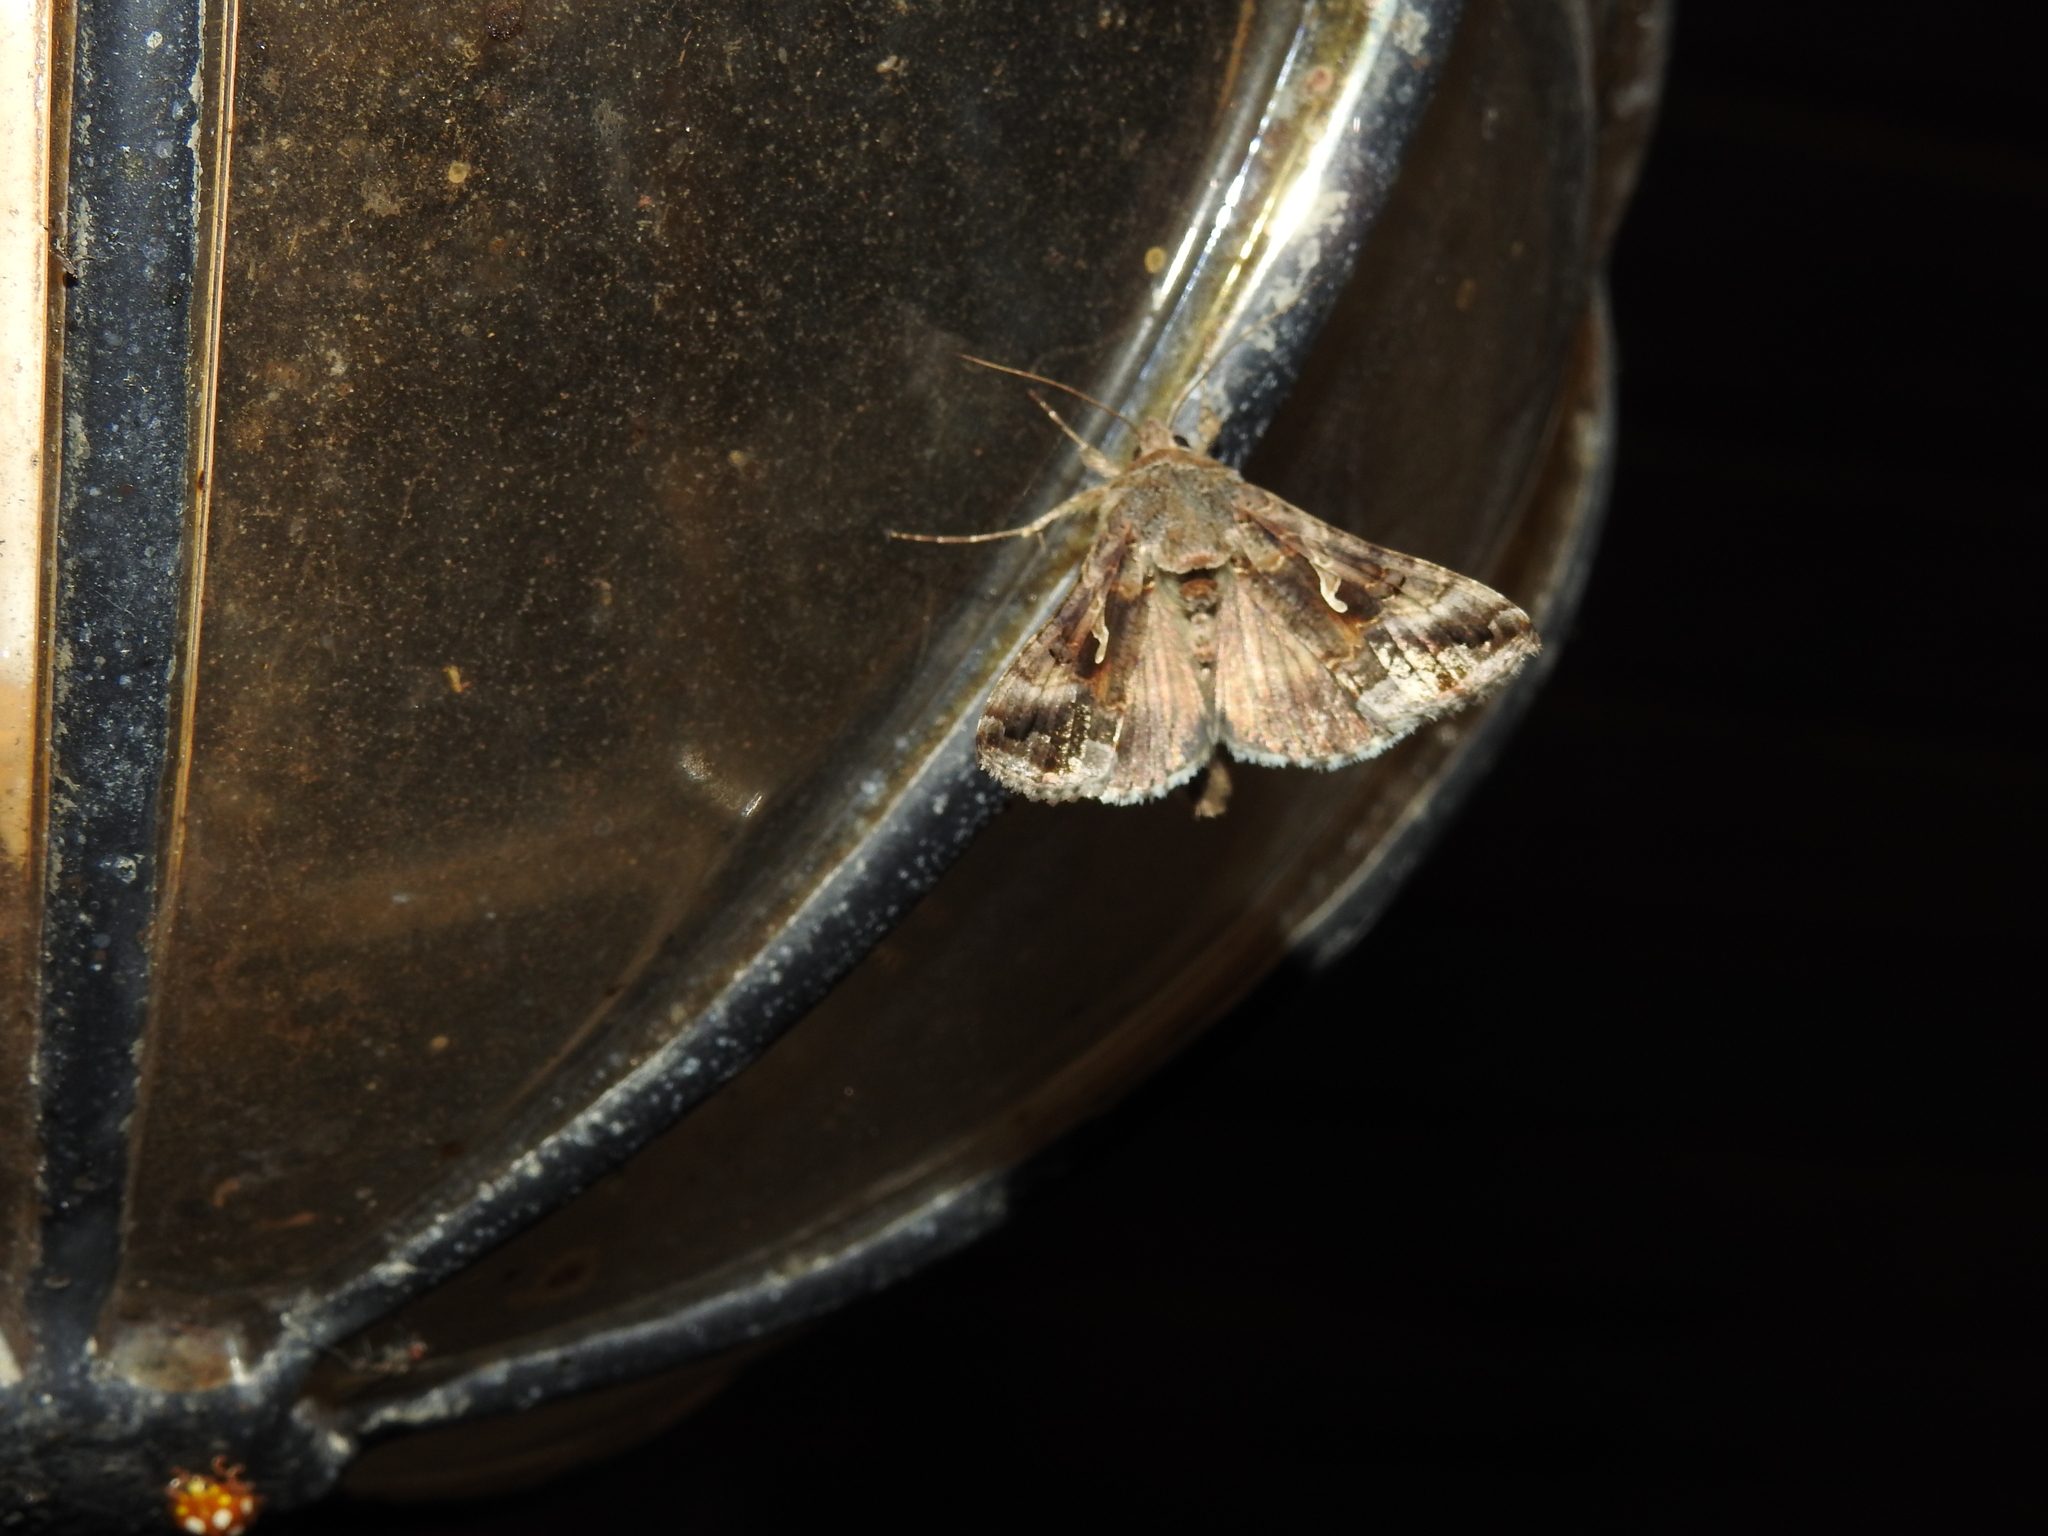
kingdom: Animalia
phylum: Arthropoda
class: Insecta
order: Lepidoptera
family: Noctuidae
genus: Autographa
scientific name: Autographa gamma
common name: Silver y
